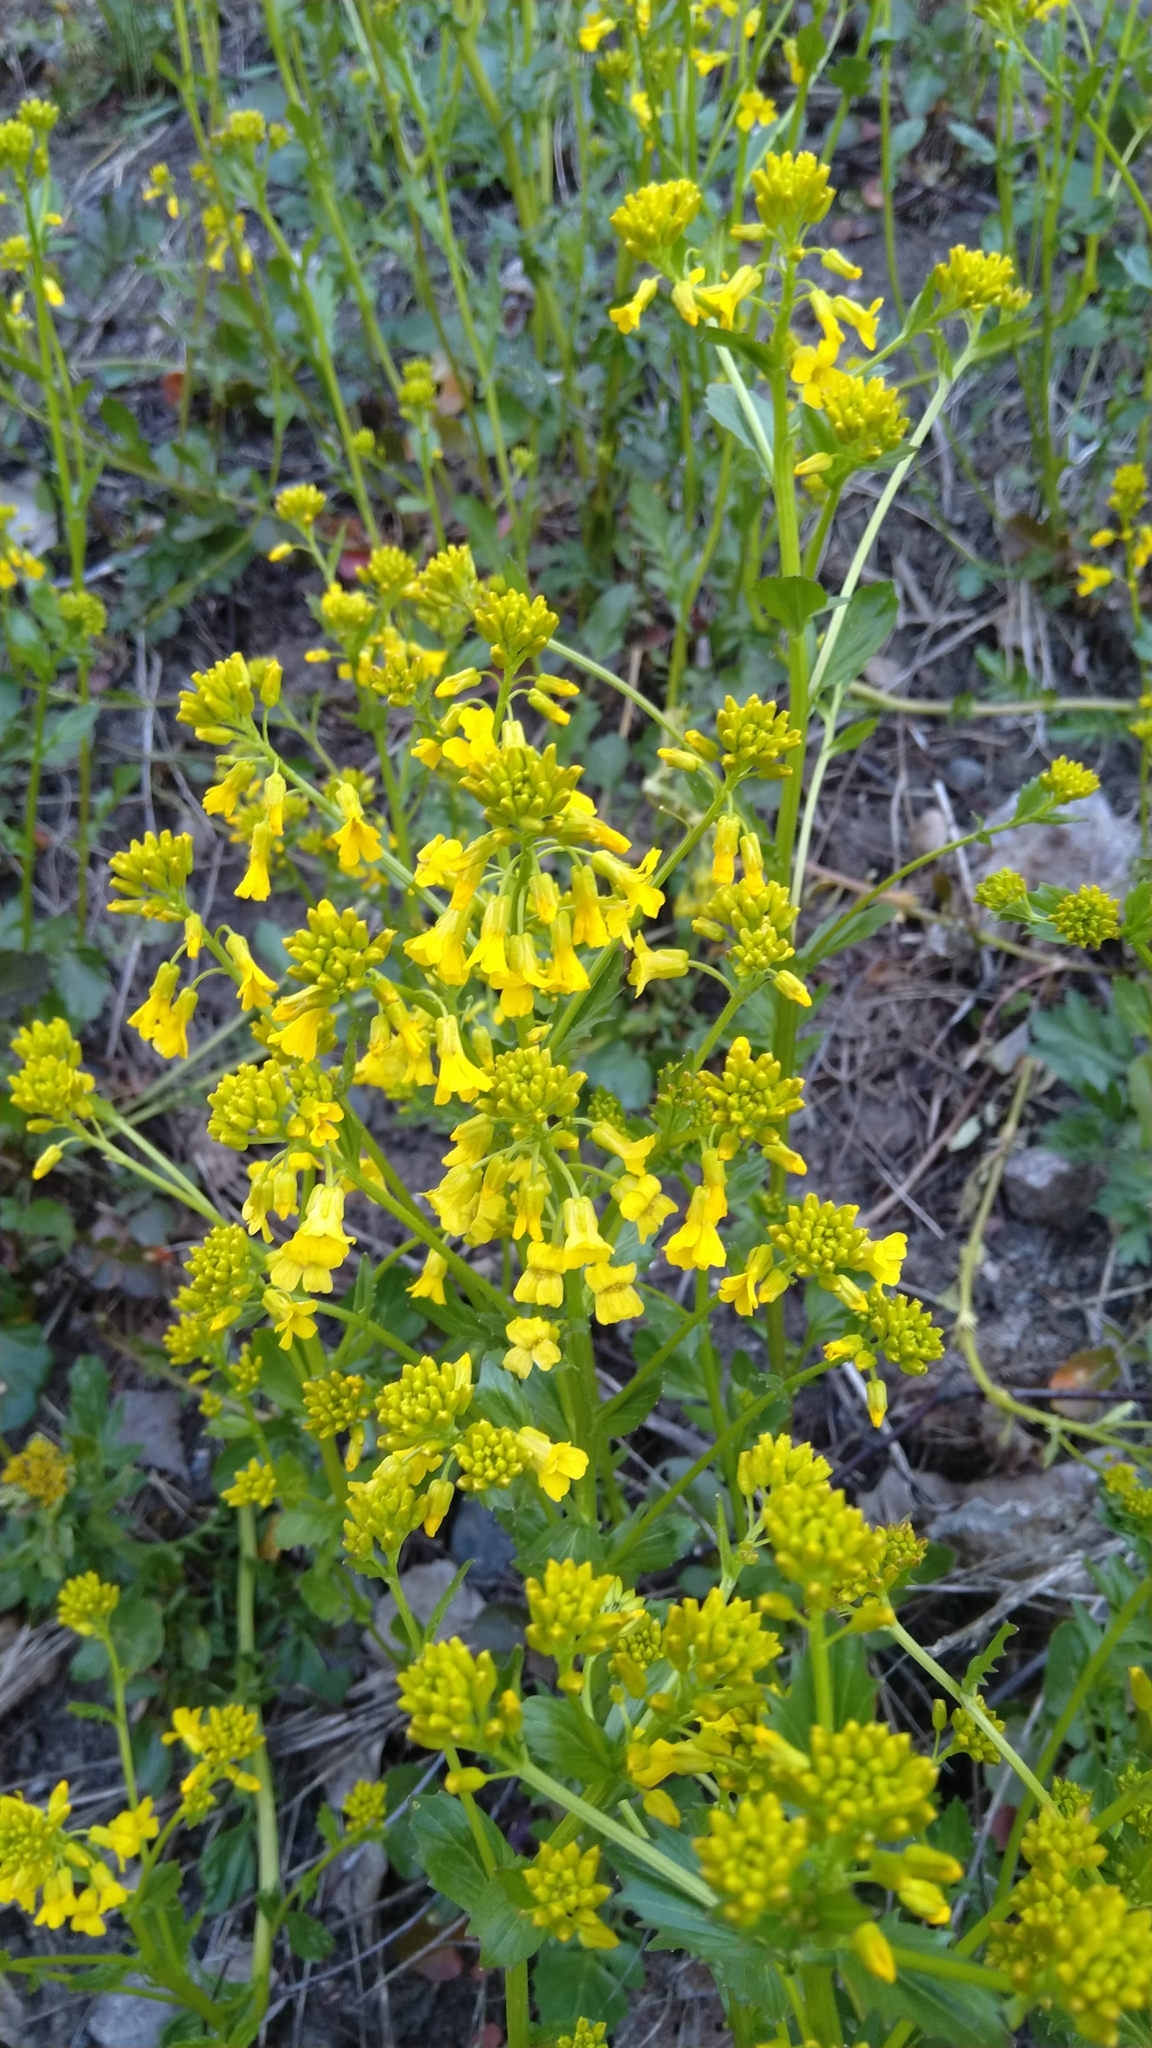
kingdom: Plantae
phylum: Tracheophyta
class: Magnoliopsida
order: Brassicales
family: Brassicaceae
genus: Barbarea
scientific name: Barbarea vulgaris
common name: Cressy-greens
